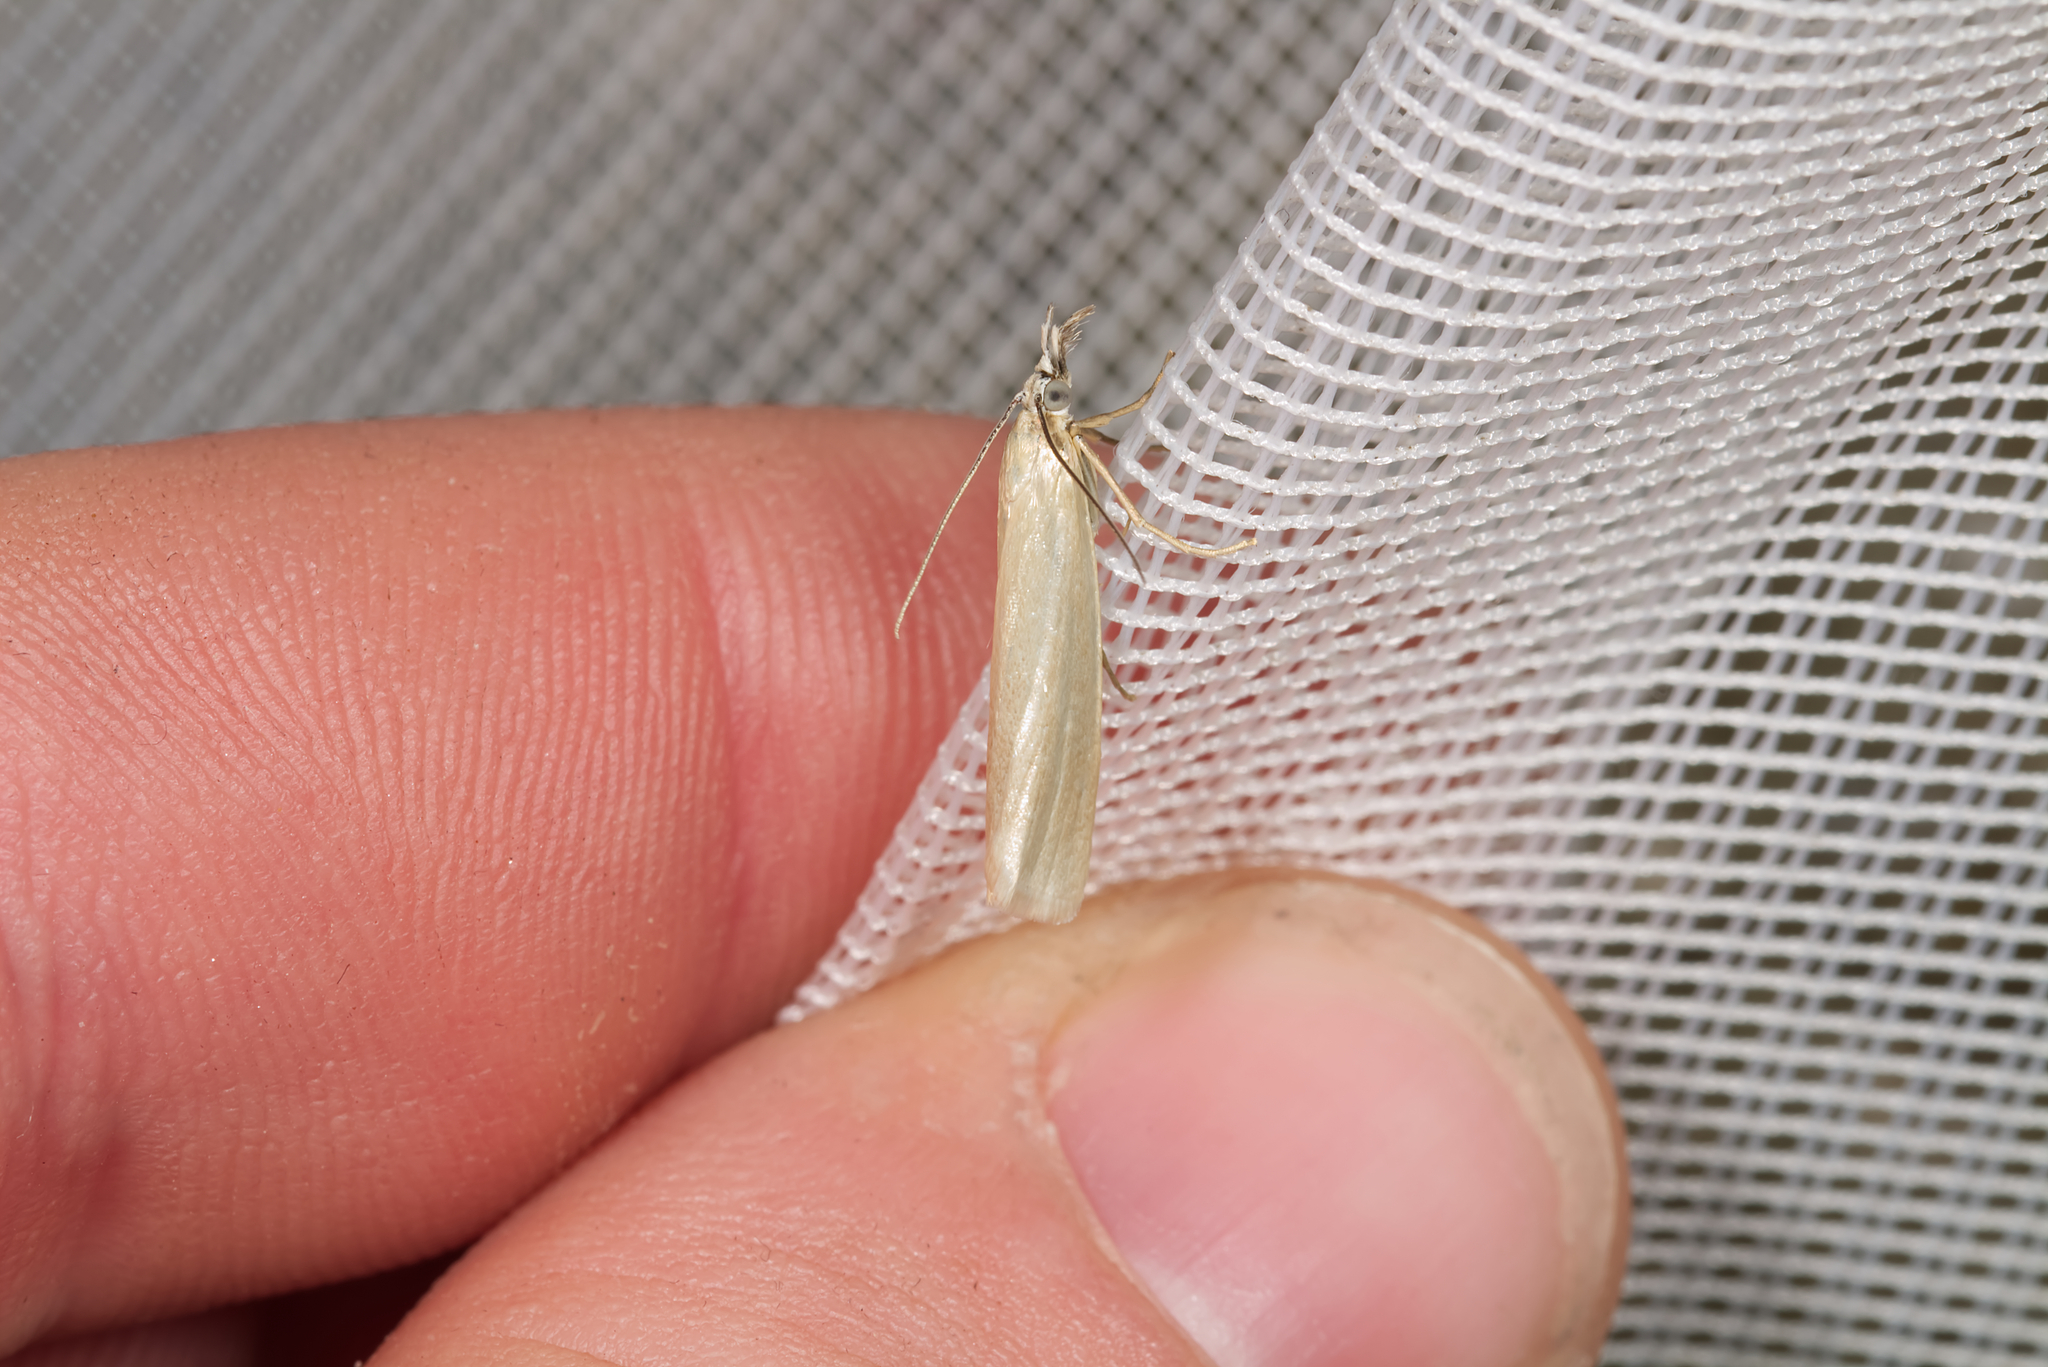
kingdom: Animalia
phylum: Arthropoda
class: Insecta
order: Lepidoptera
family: Crambidae
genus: Crambus
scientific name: Crambus perlellus
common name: Yellow satin veneer
